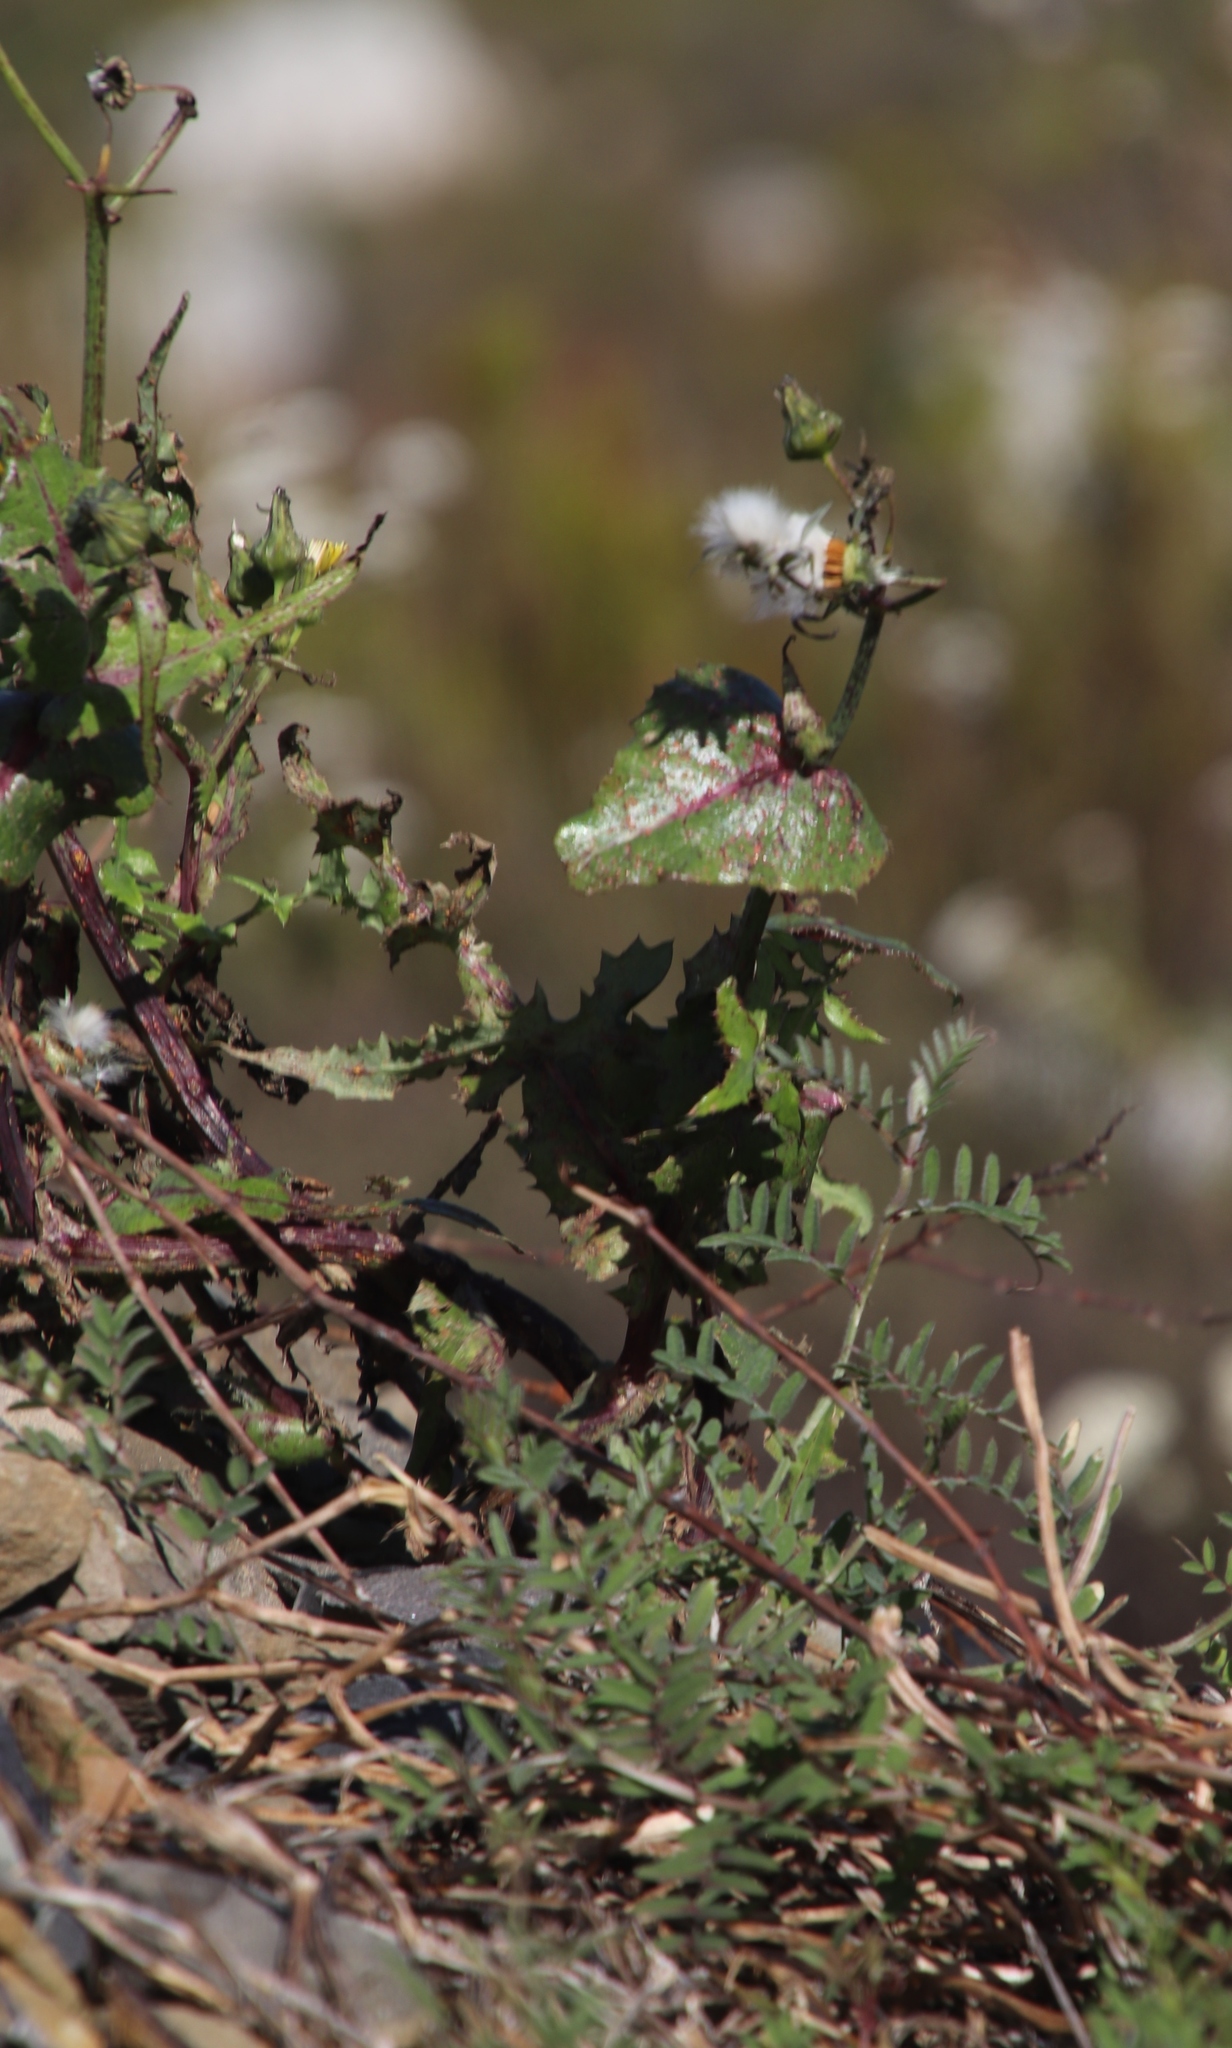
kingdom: Plantae
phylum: Tracheophyta
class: Magnoliopsida
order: Asterales
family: Asteraceae
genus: Sonchus
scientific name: Sonchus oleraceus
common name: Common sowthistle
